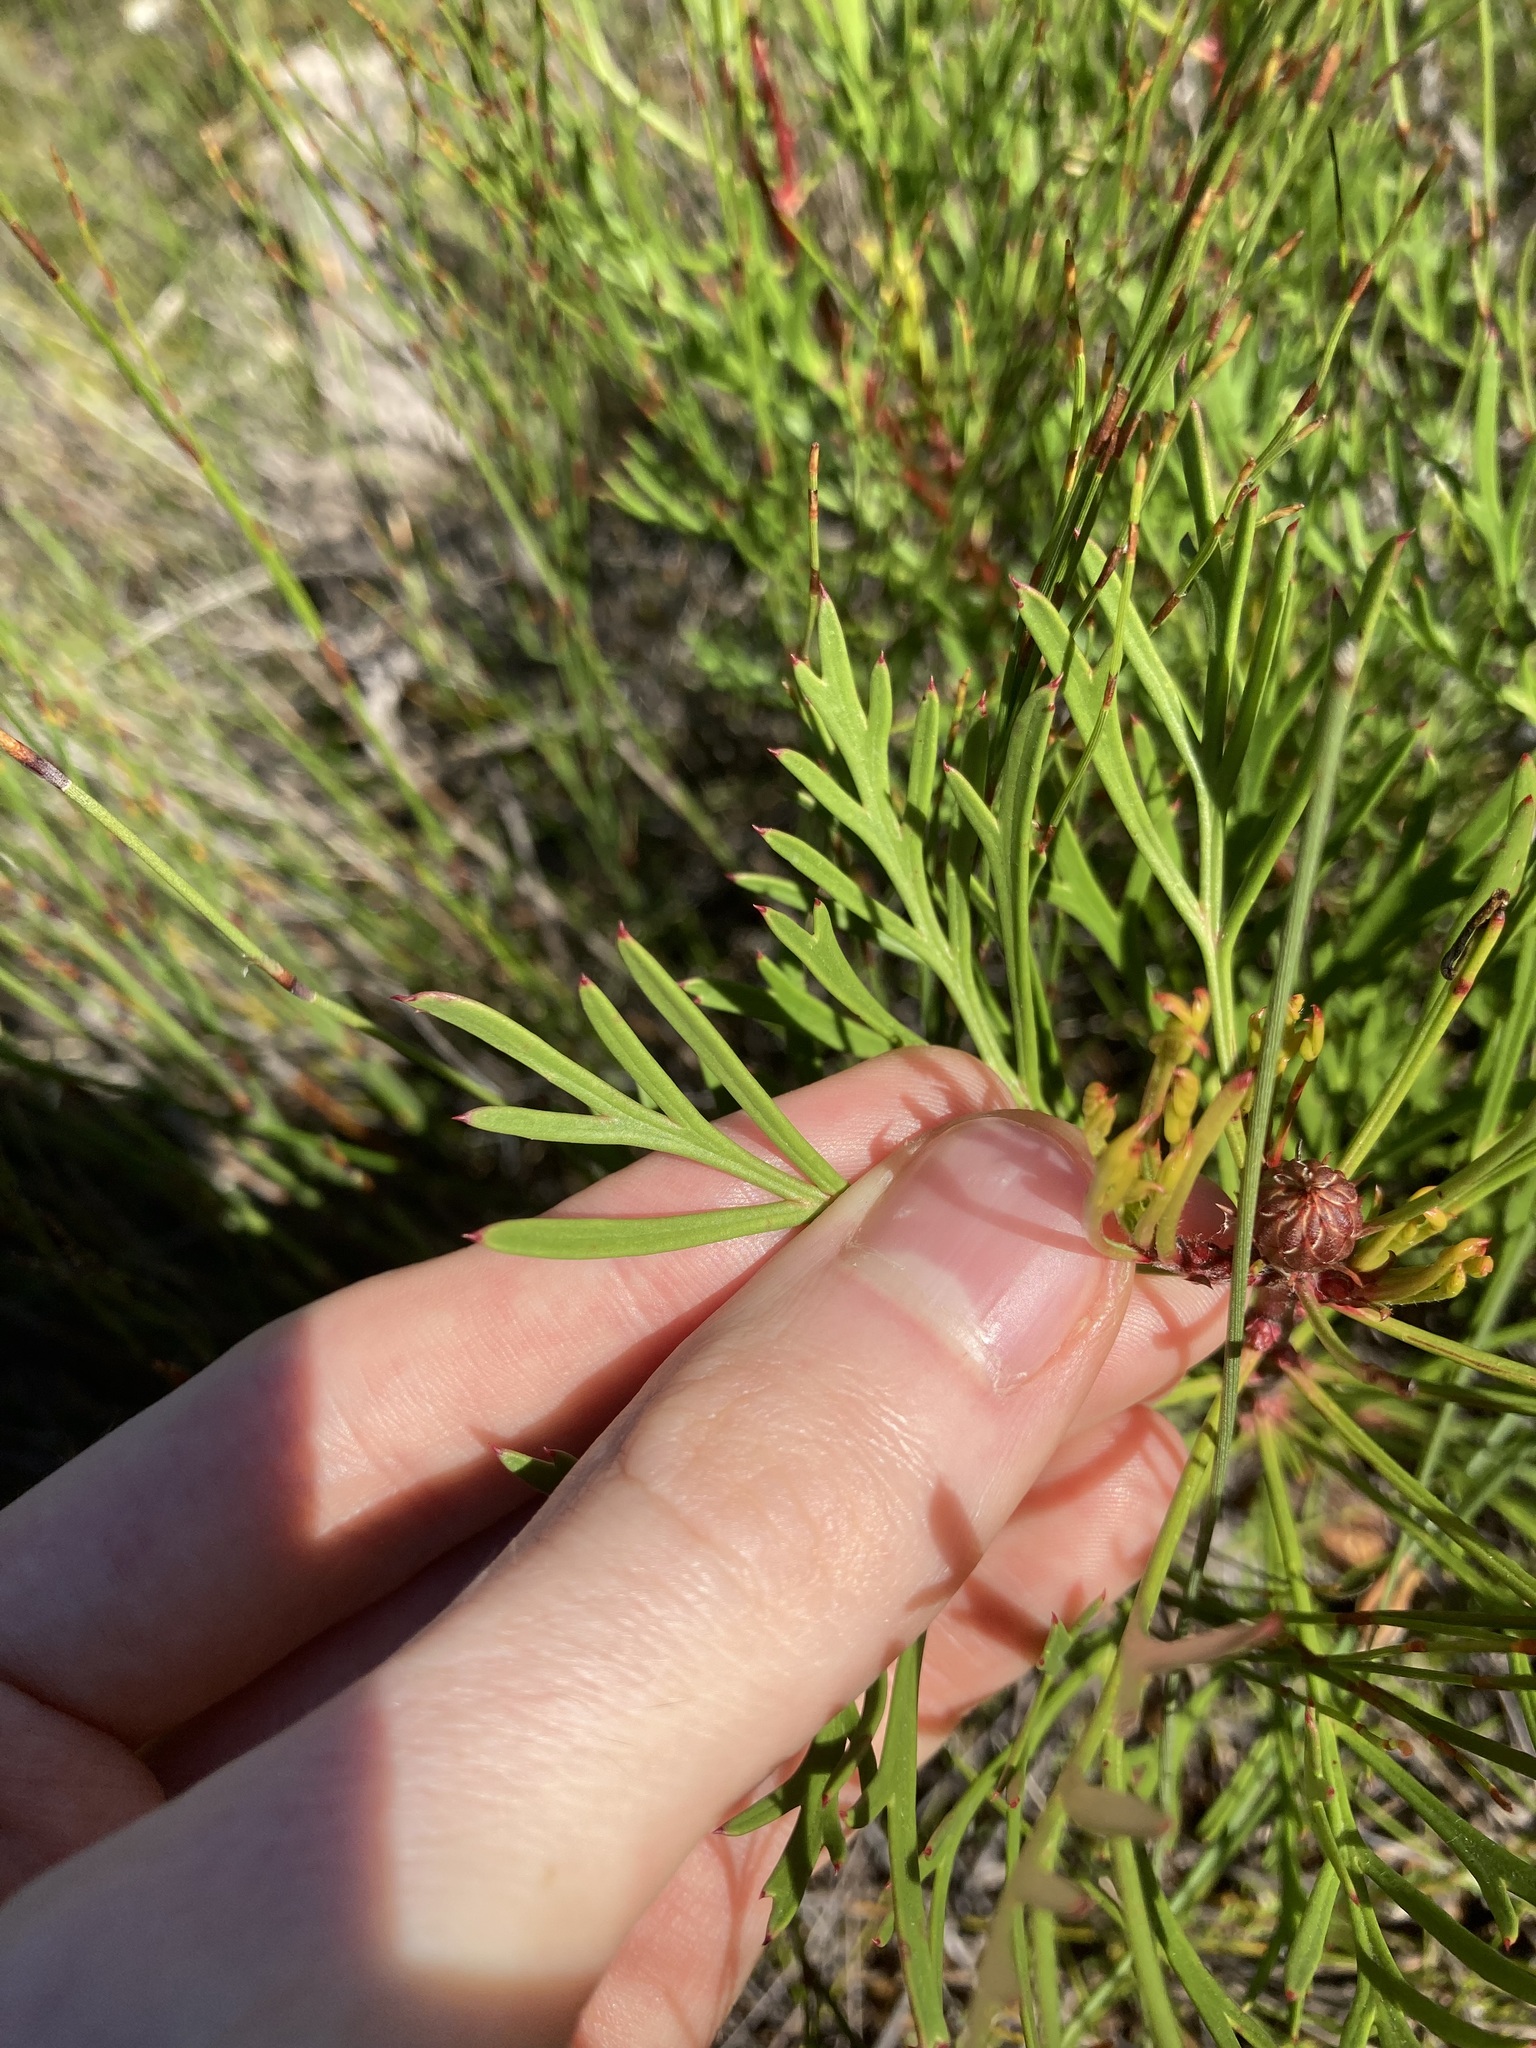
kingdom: Plantae
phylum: Tracheophyta
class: Magnoliopsida
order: Proteales
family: Proteaceae
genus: Isopogon
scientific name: Isopogon anemonifolius
